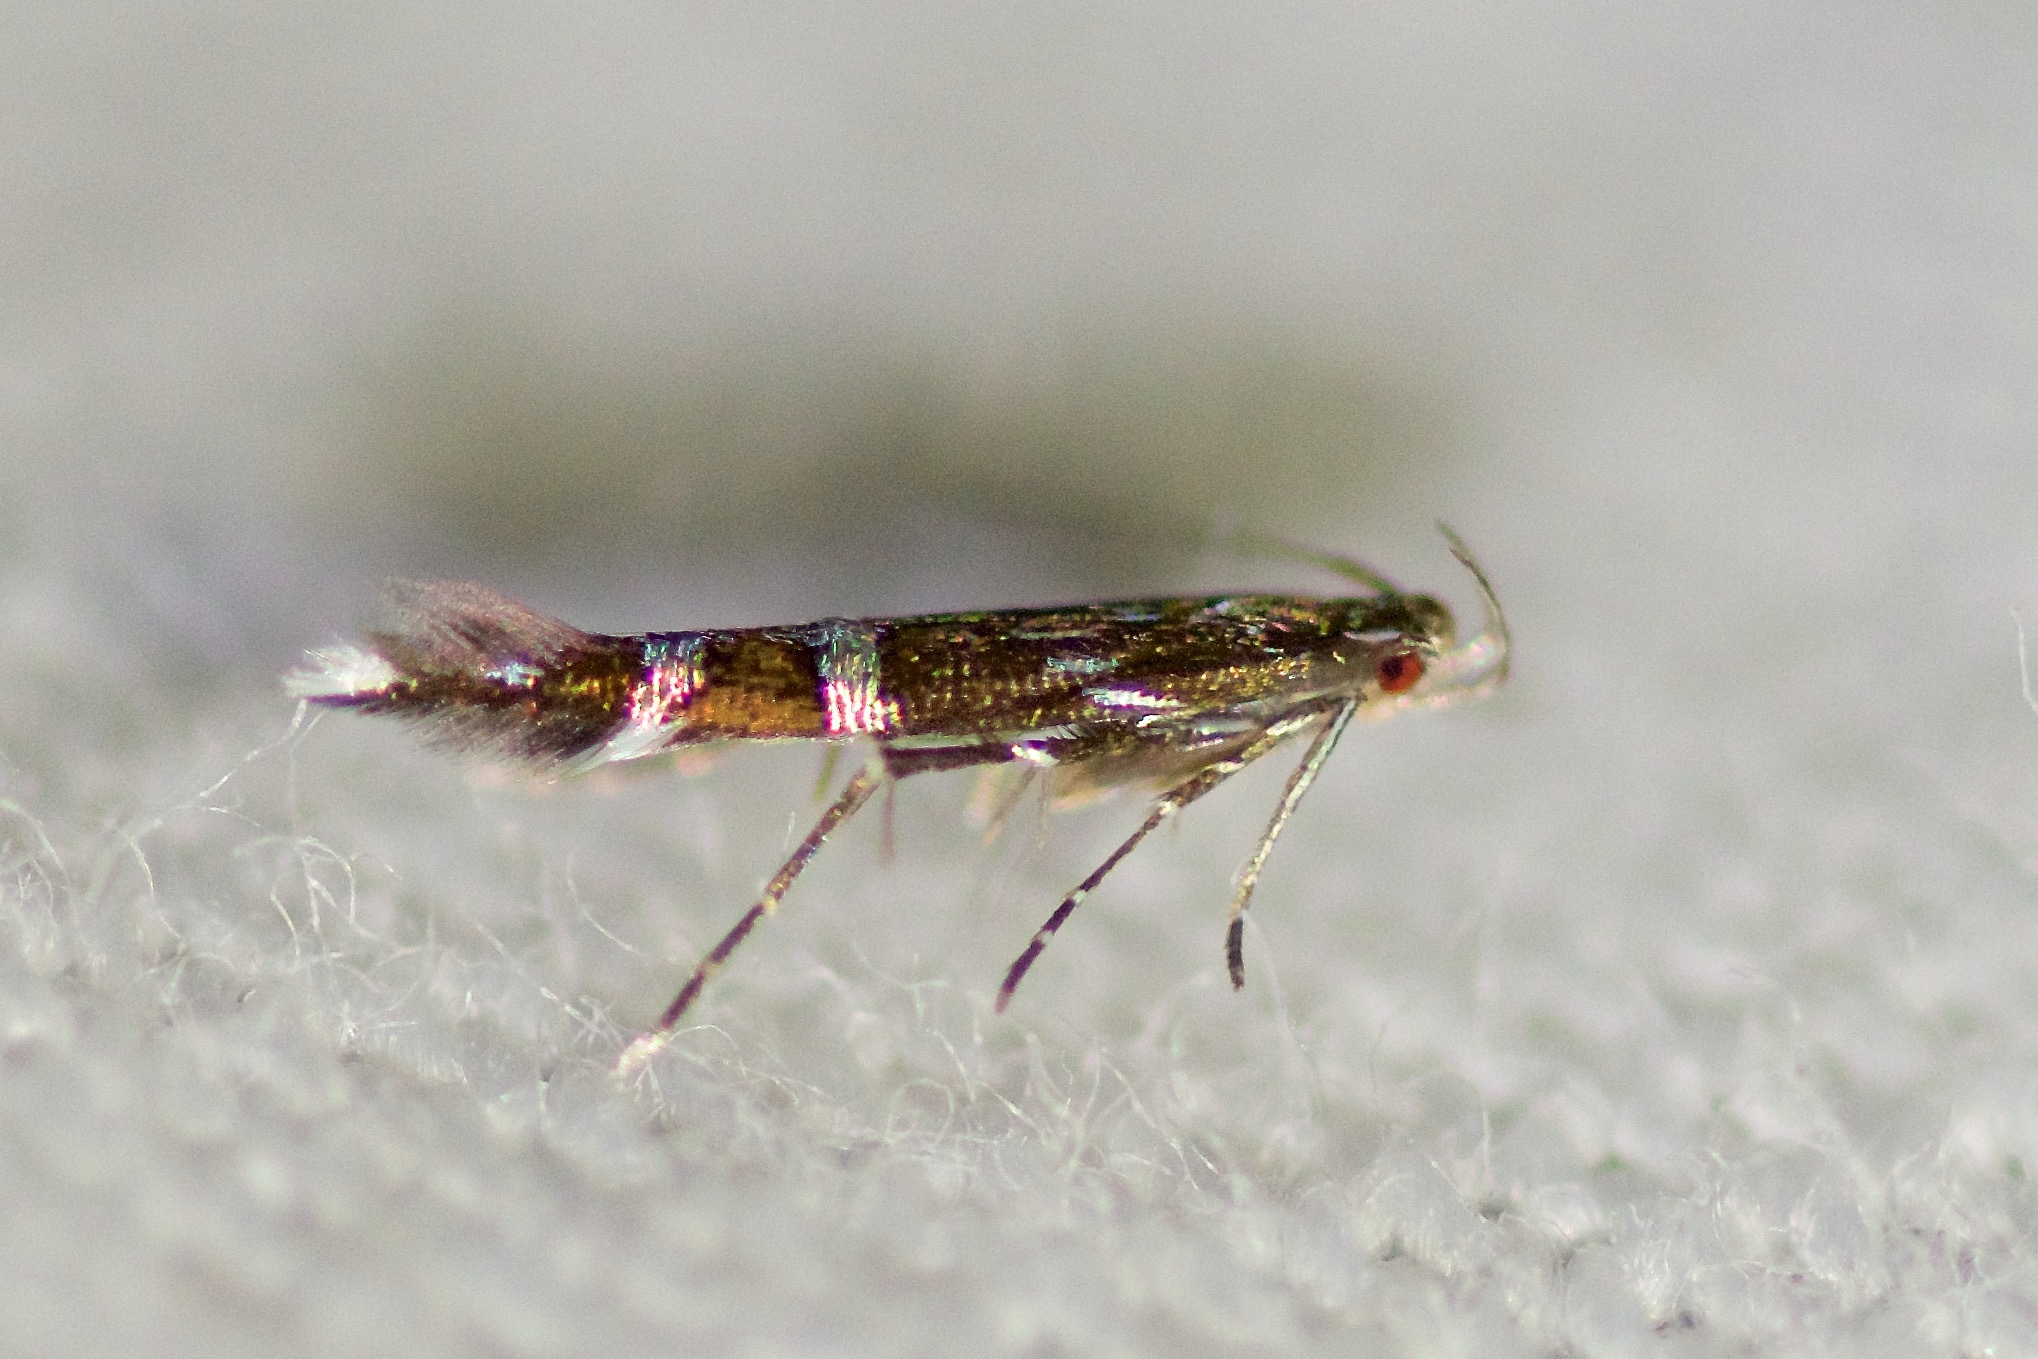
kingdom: Animalia
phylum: Arthropoda
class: Insecta
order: Lepidoptera
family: Cosmopterigidae
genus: Cosmopterix
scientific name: Cosmopterix pulchrimella
